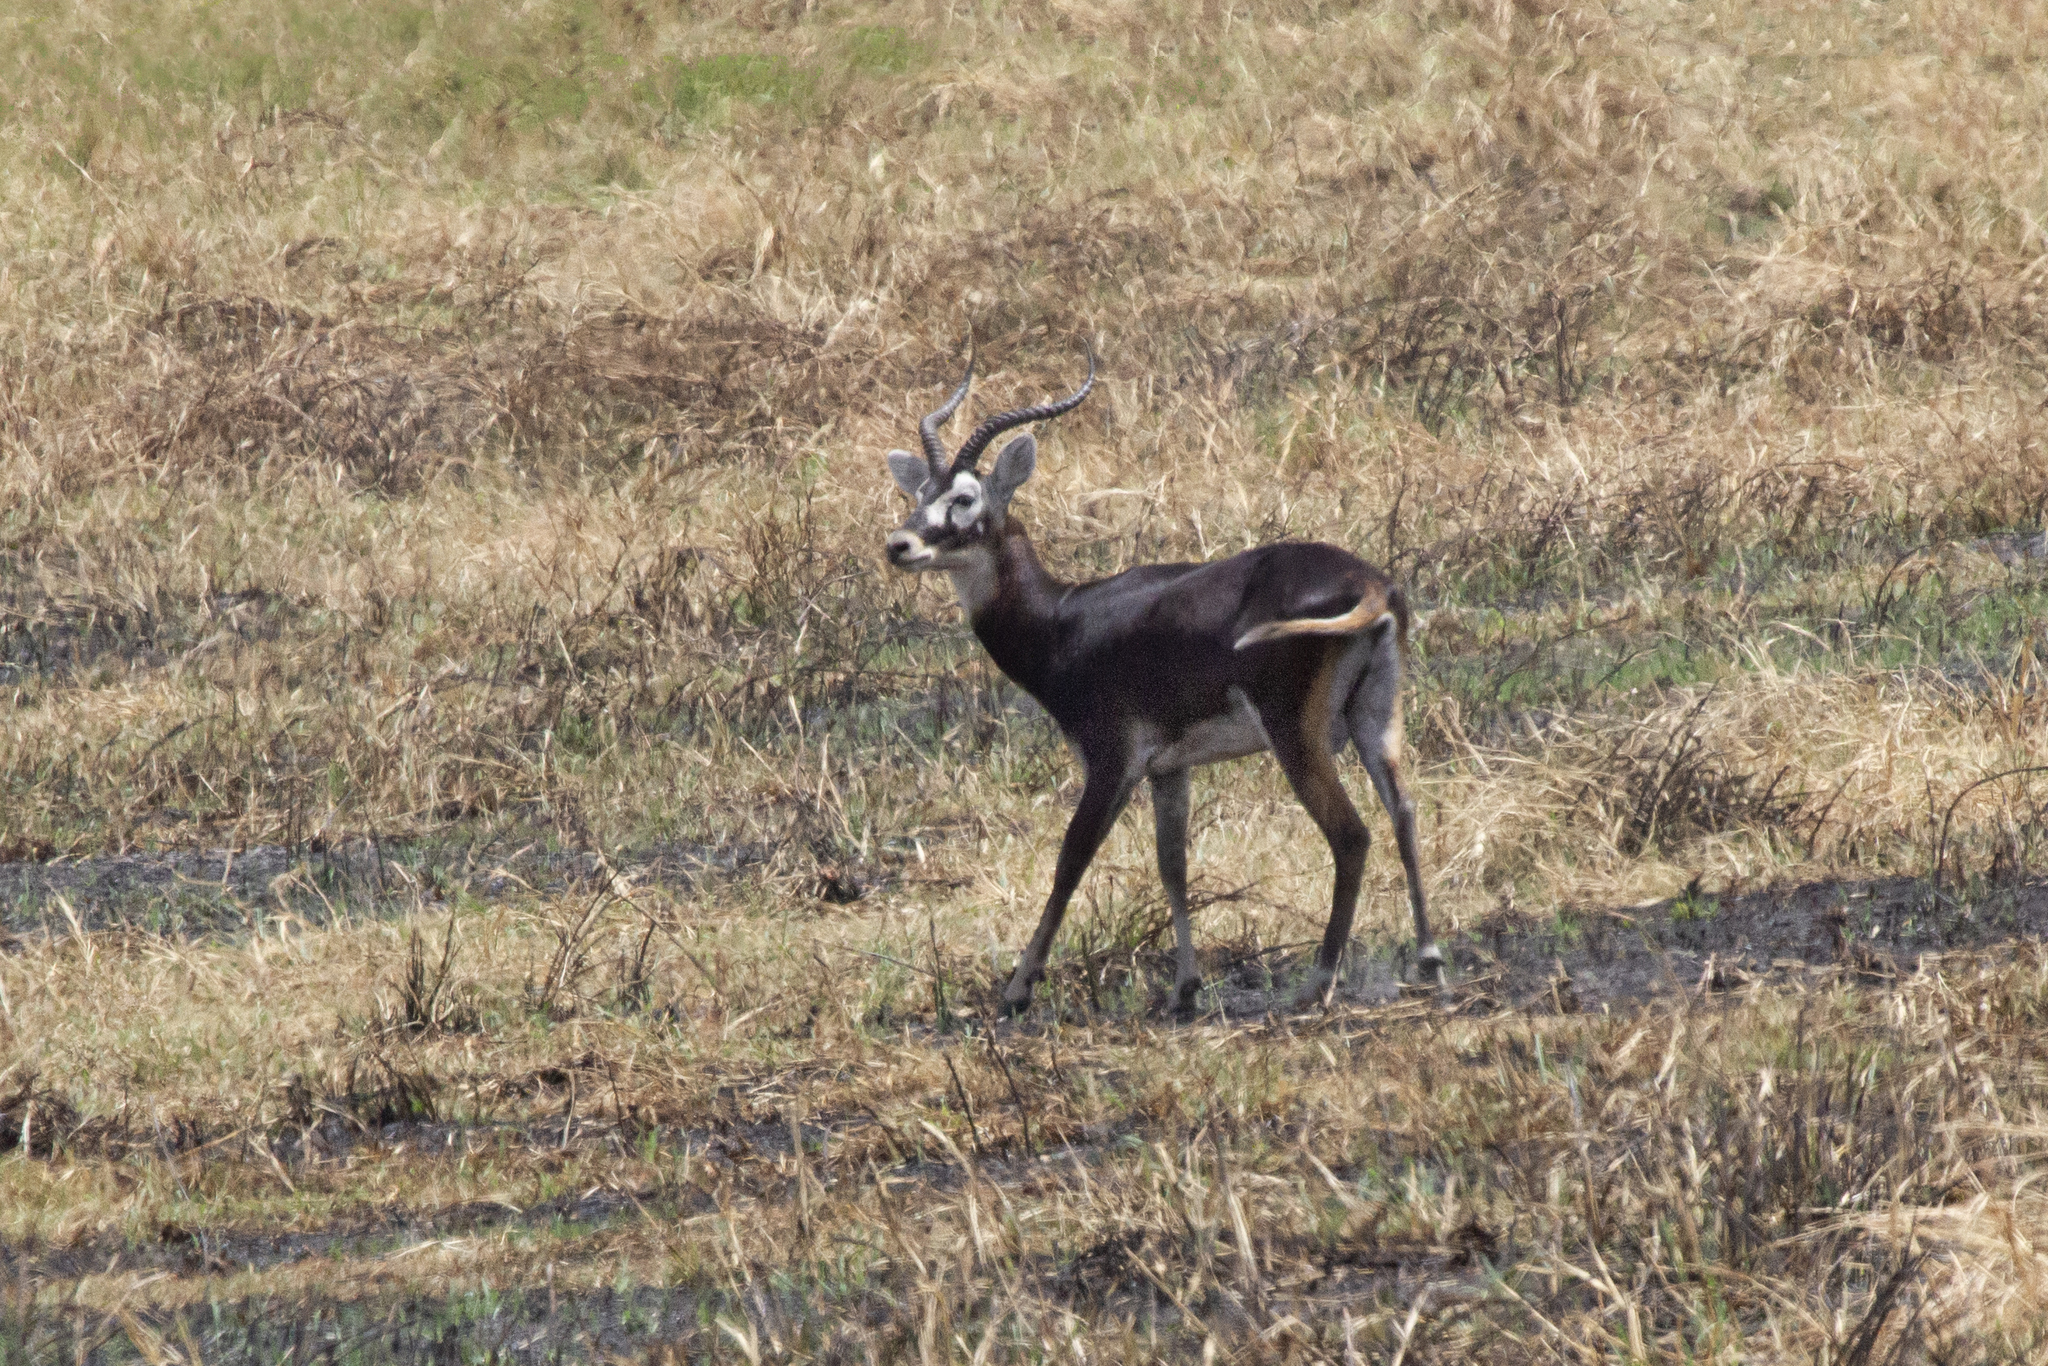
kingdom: Animalia
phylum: Chordata
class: Mammalia
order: Artiodactyla
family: Bovidae
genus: Kobus
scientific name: Kobus kob
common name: Kob
